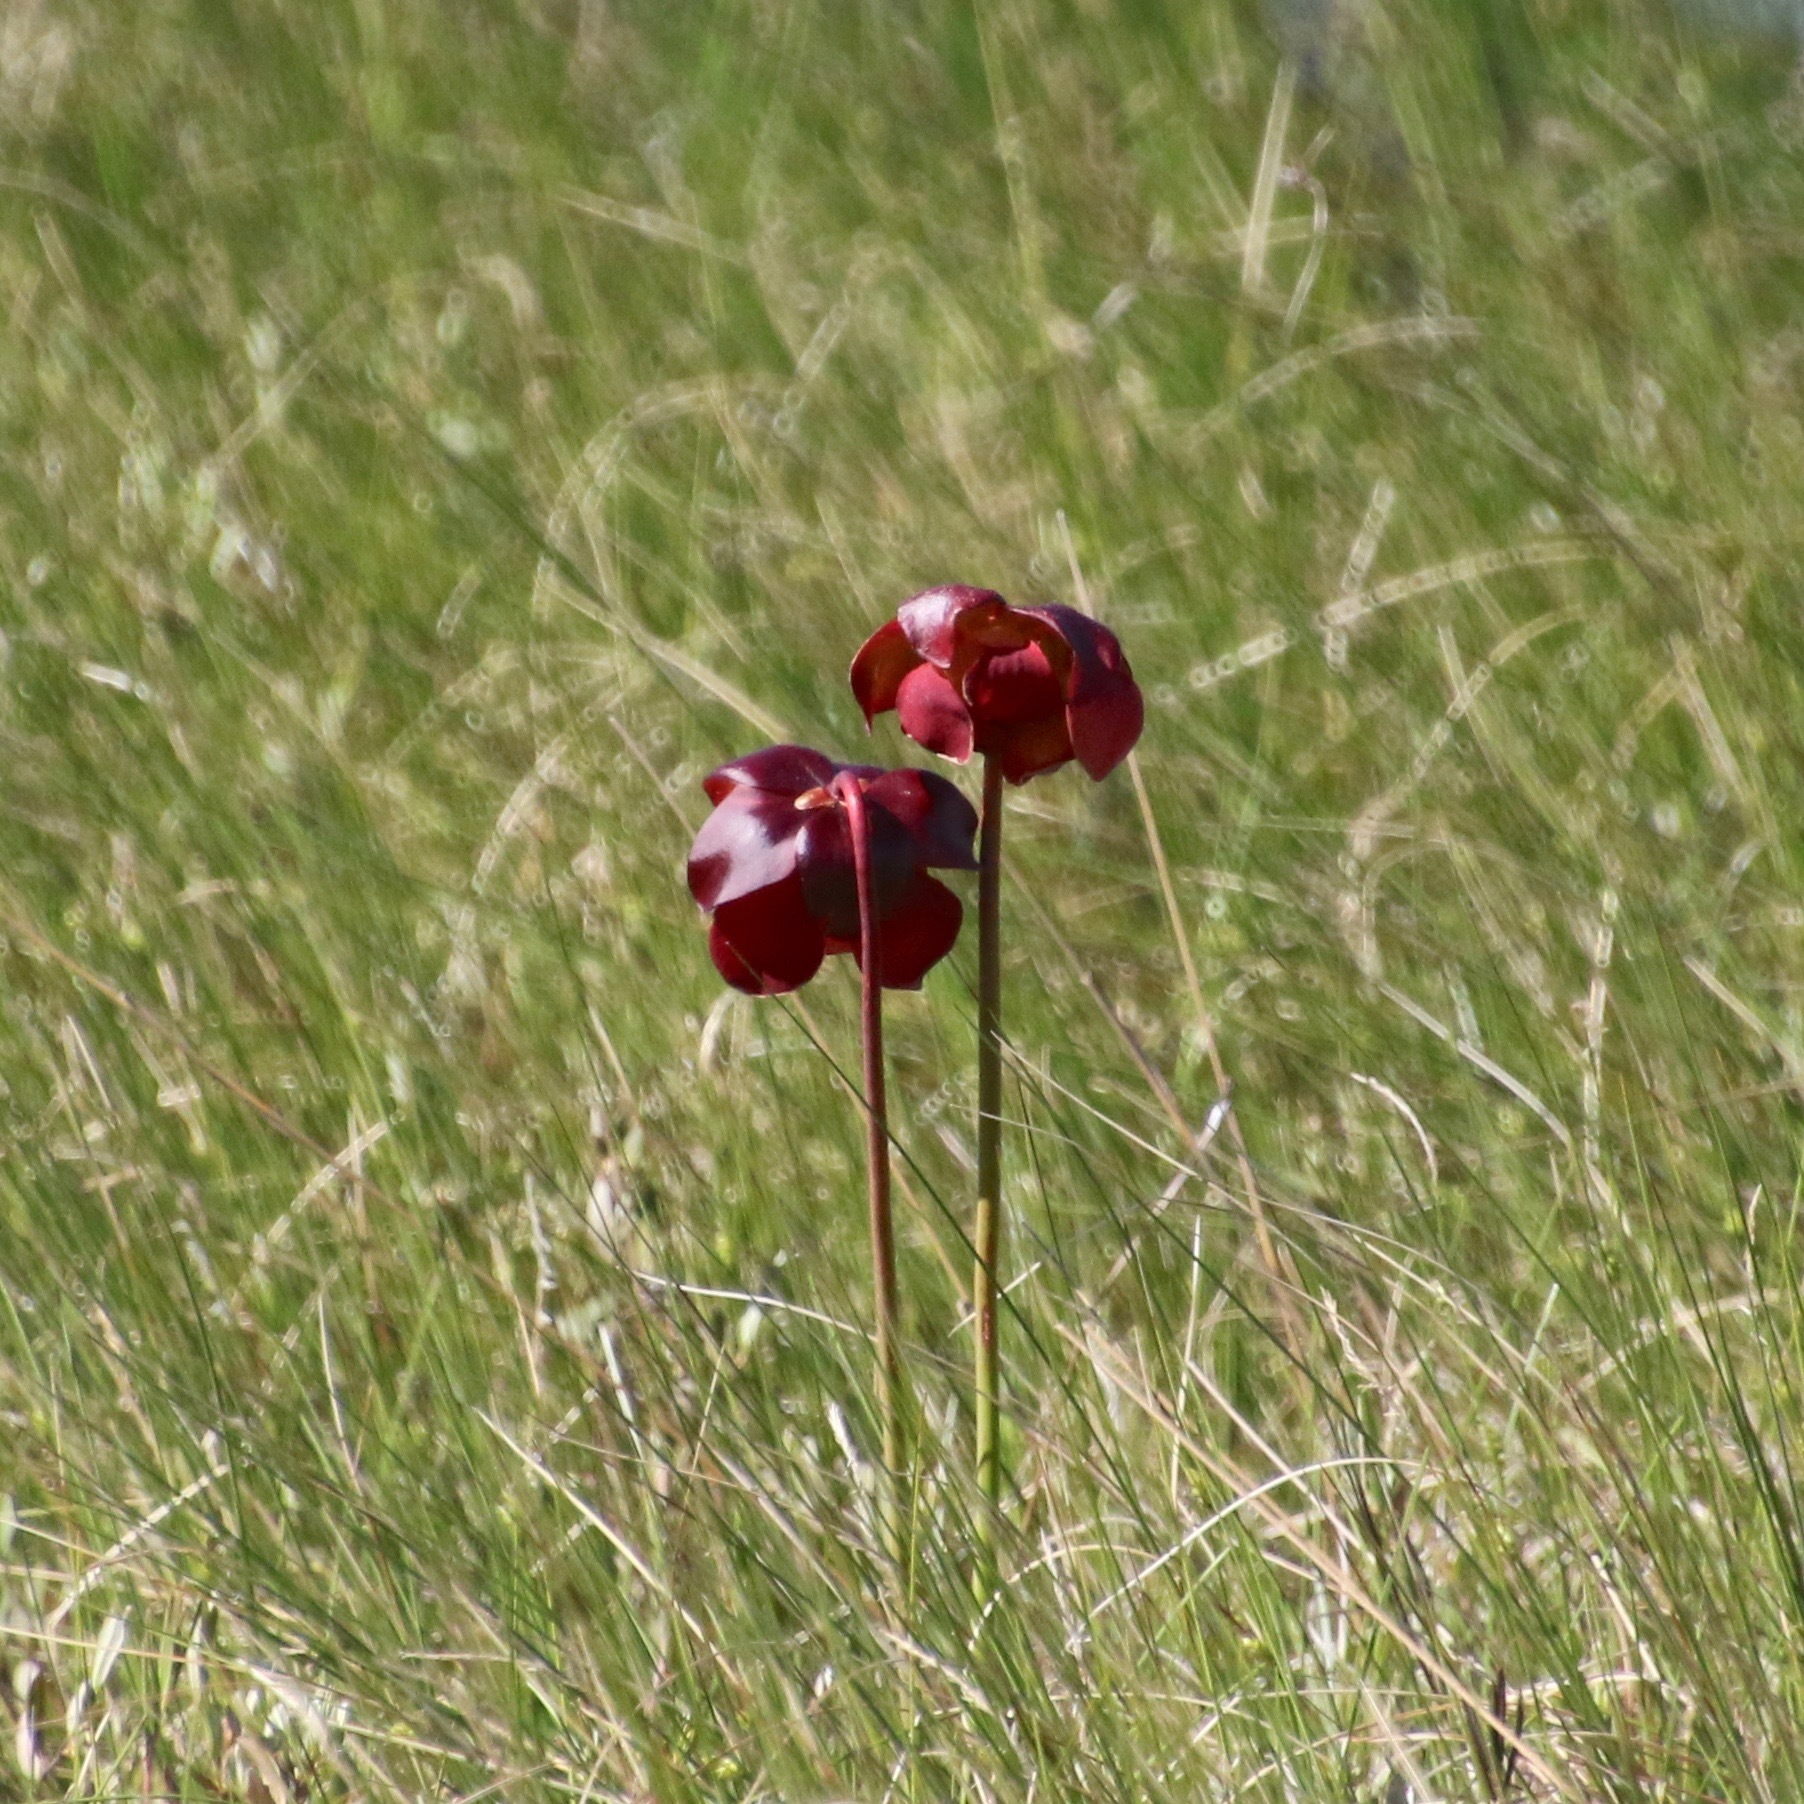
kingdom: Plantae
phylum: Tracheophyta
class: Magnoliopsida
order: Ericales
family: Sarraceniaceae
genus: Sarracenia
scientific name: Sarracenia purpurea
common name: Pitcherplant
